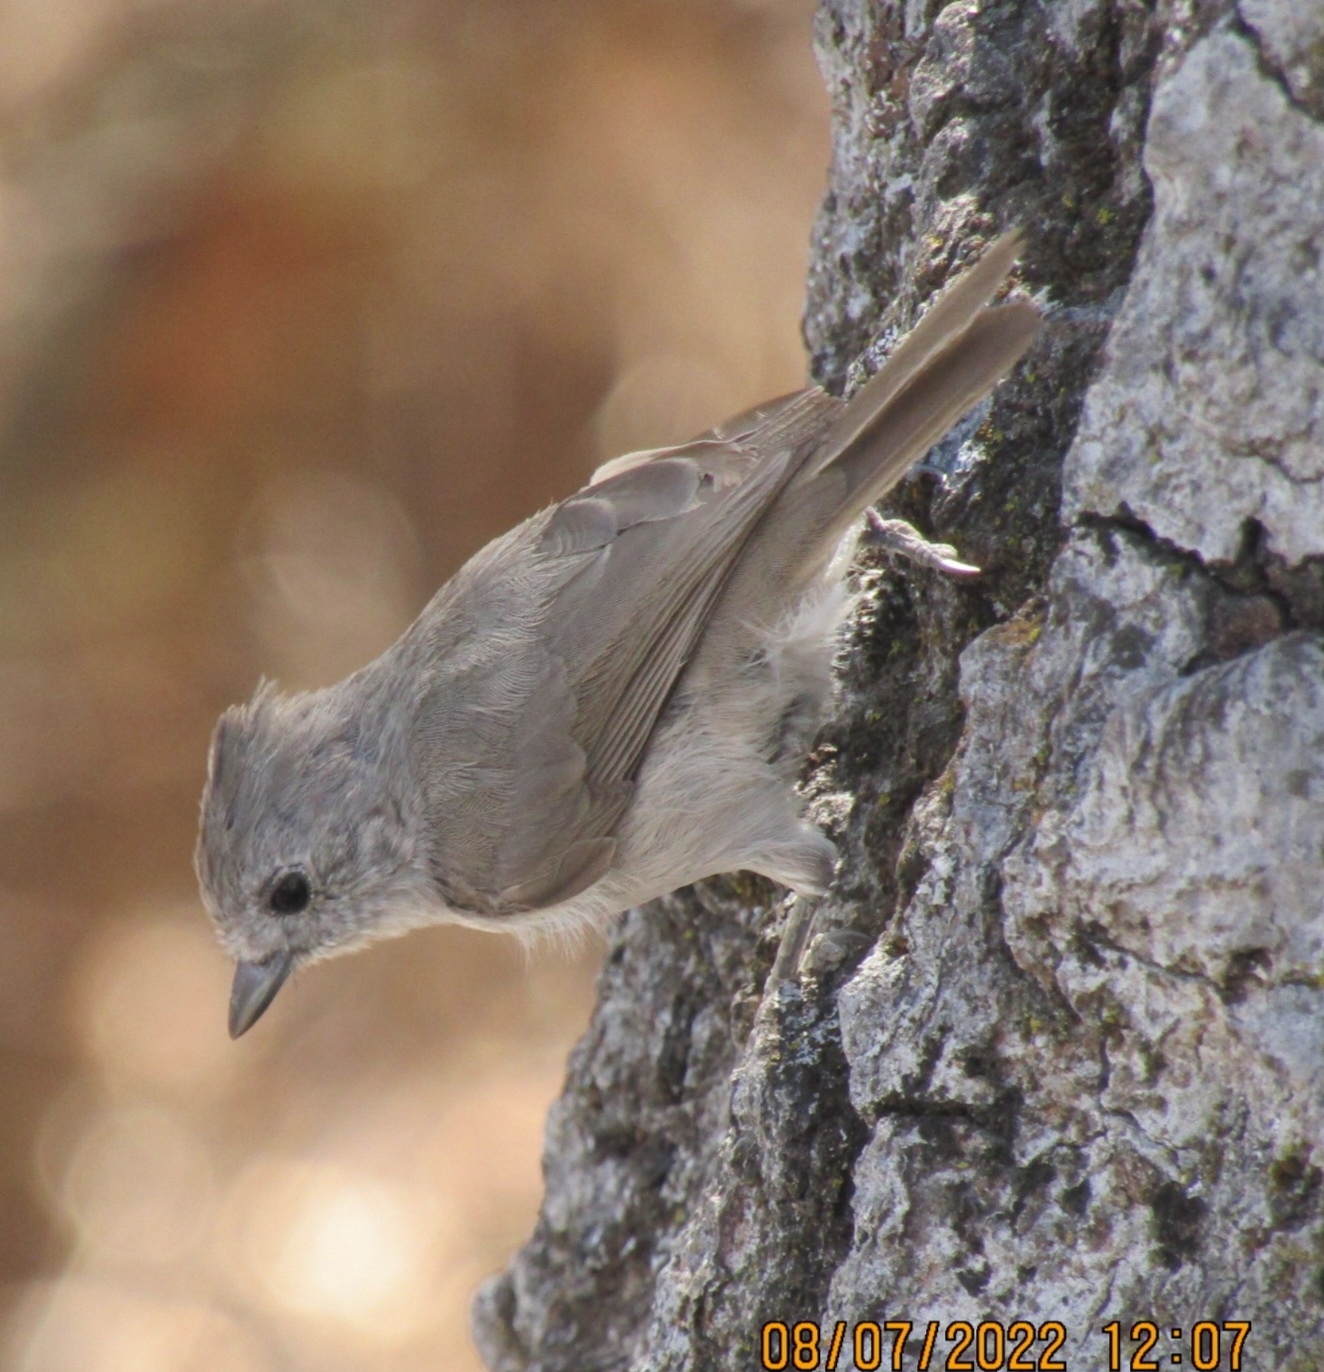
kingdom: Animalia
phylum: Chordata
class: Aves
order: Passeriformes
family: Paridae
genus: Baeolophus
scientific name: Baeolophus inornatus
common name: Oak titmouse
